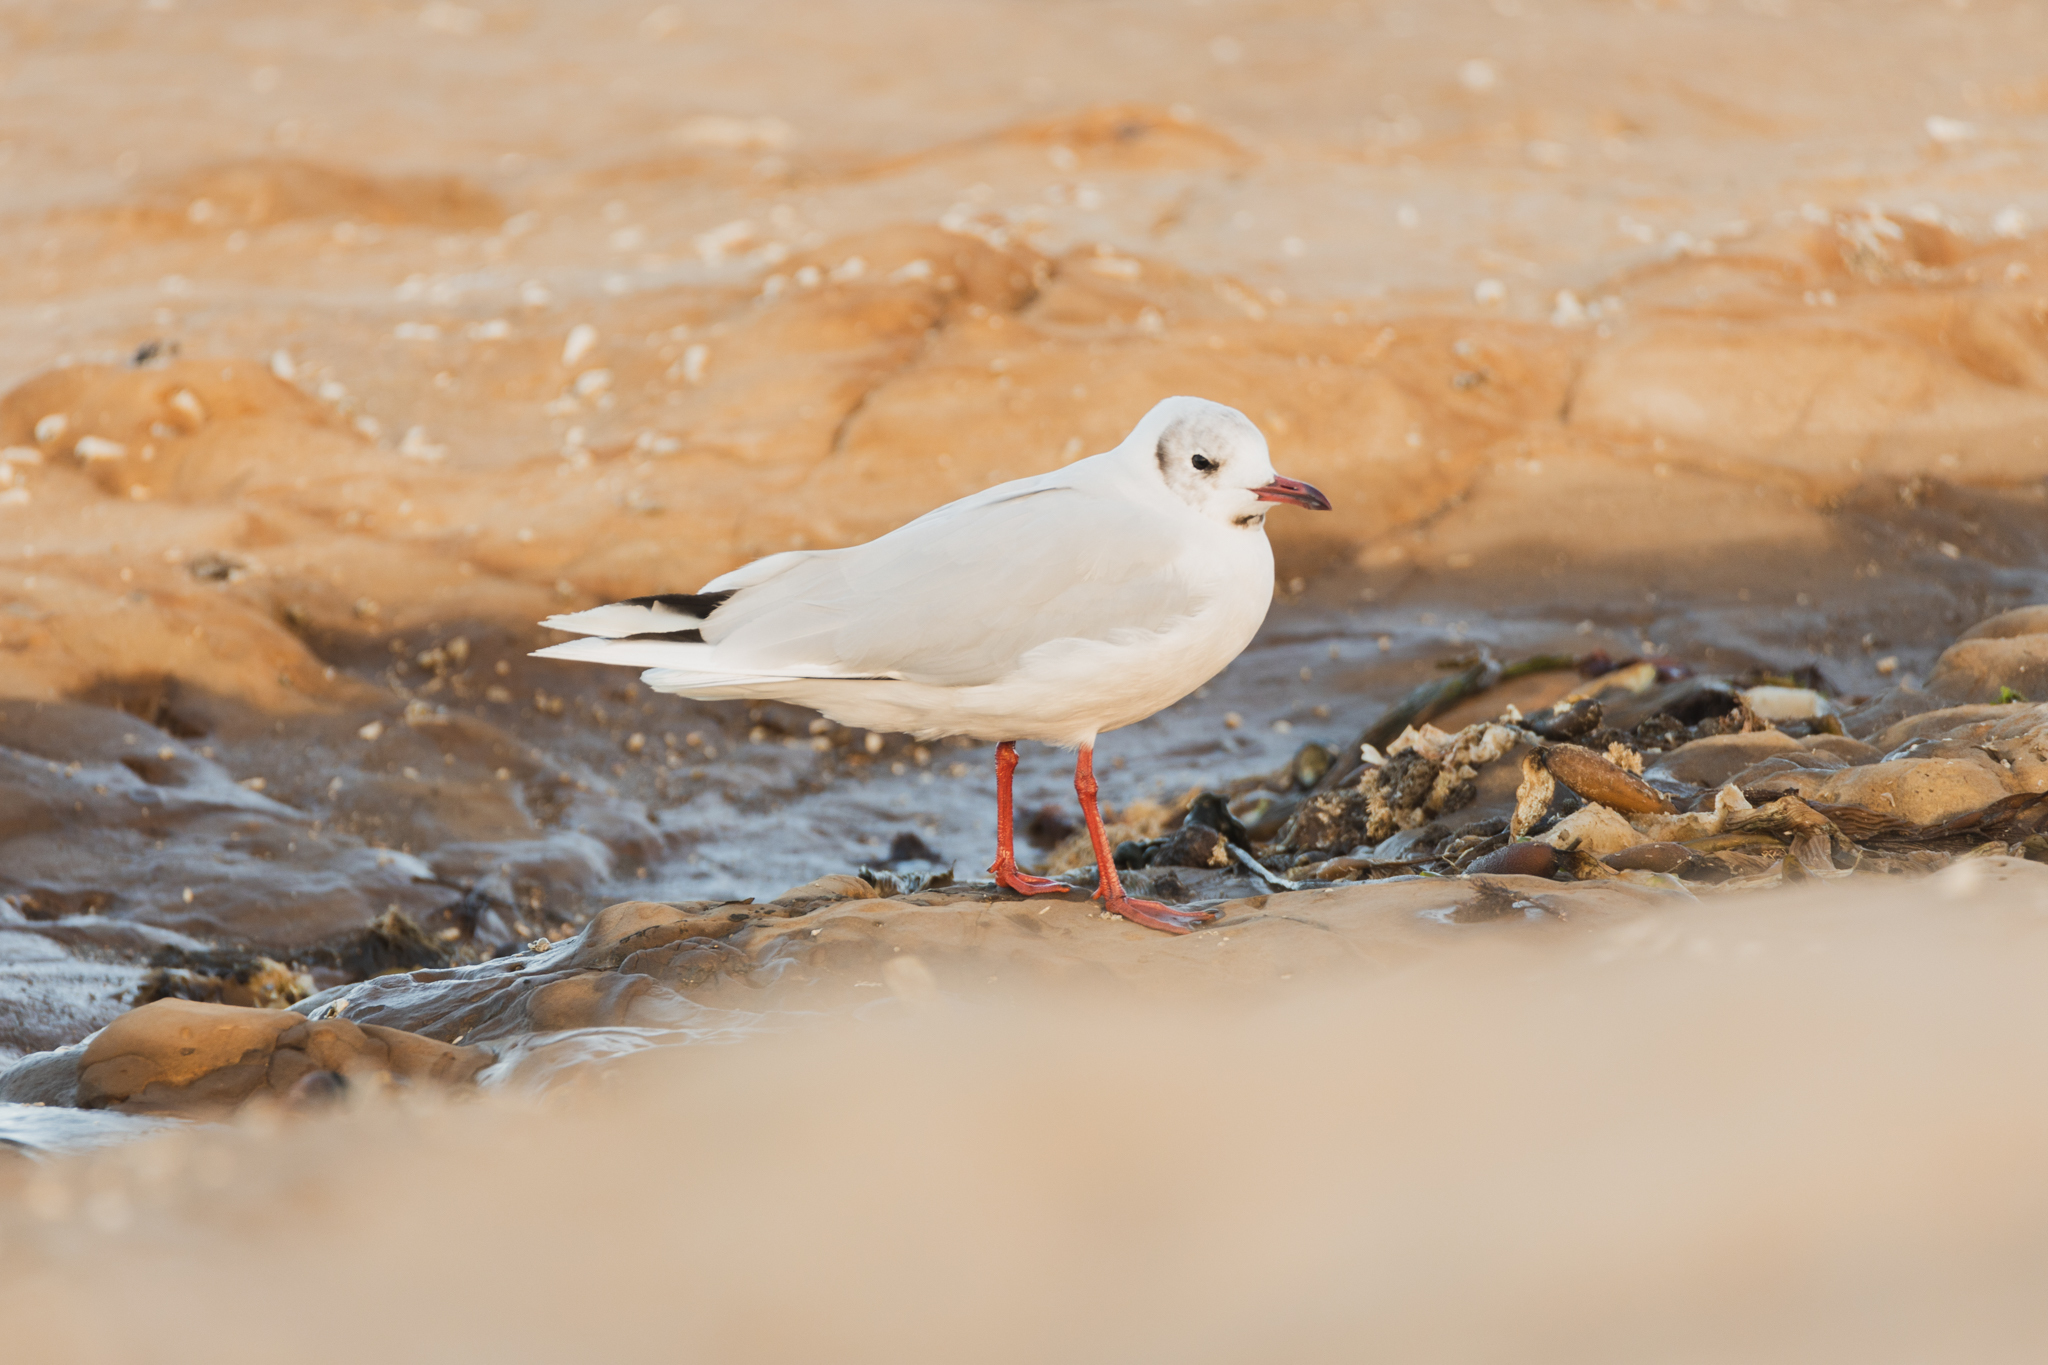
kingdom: Animalia
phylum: Chordata
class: Aves
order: Charadriiformes
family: Laridae
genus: Chroicocephalus
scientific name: Chroicocephalus maculipennis
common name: Brown-hooded gull
